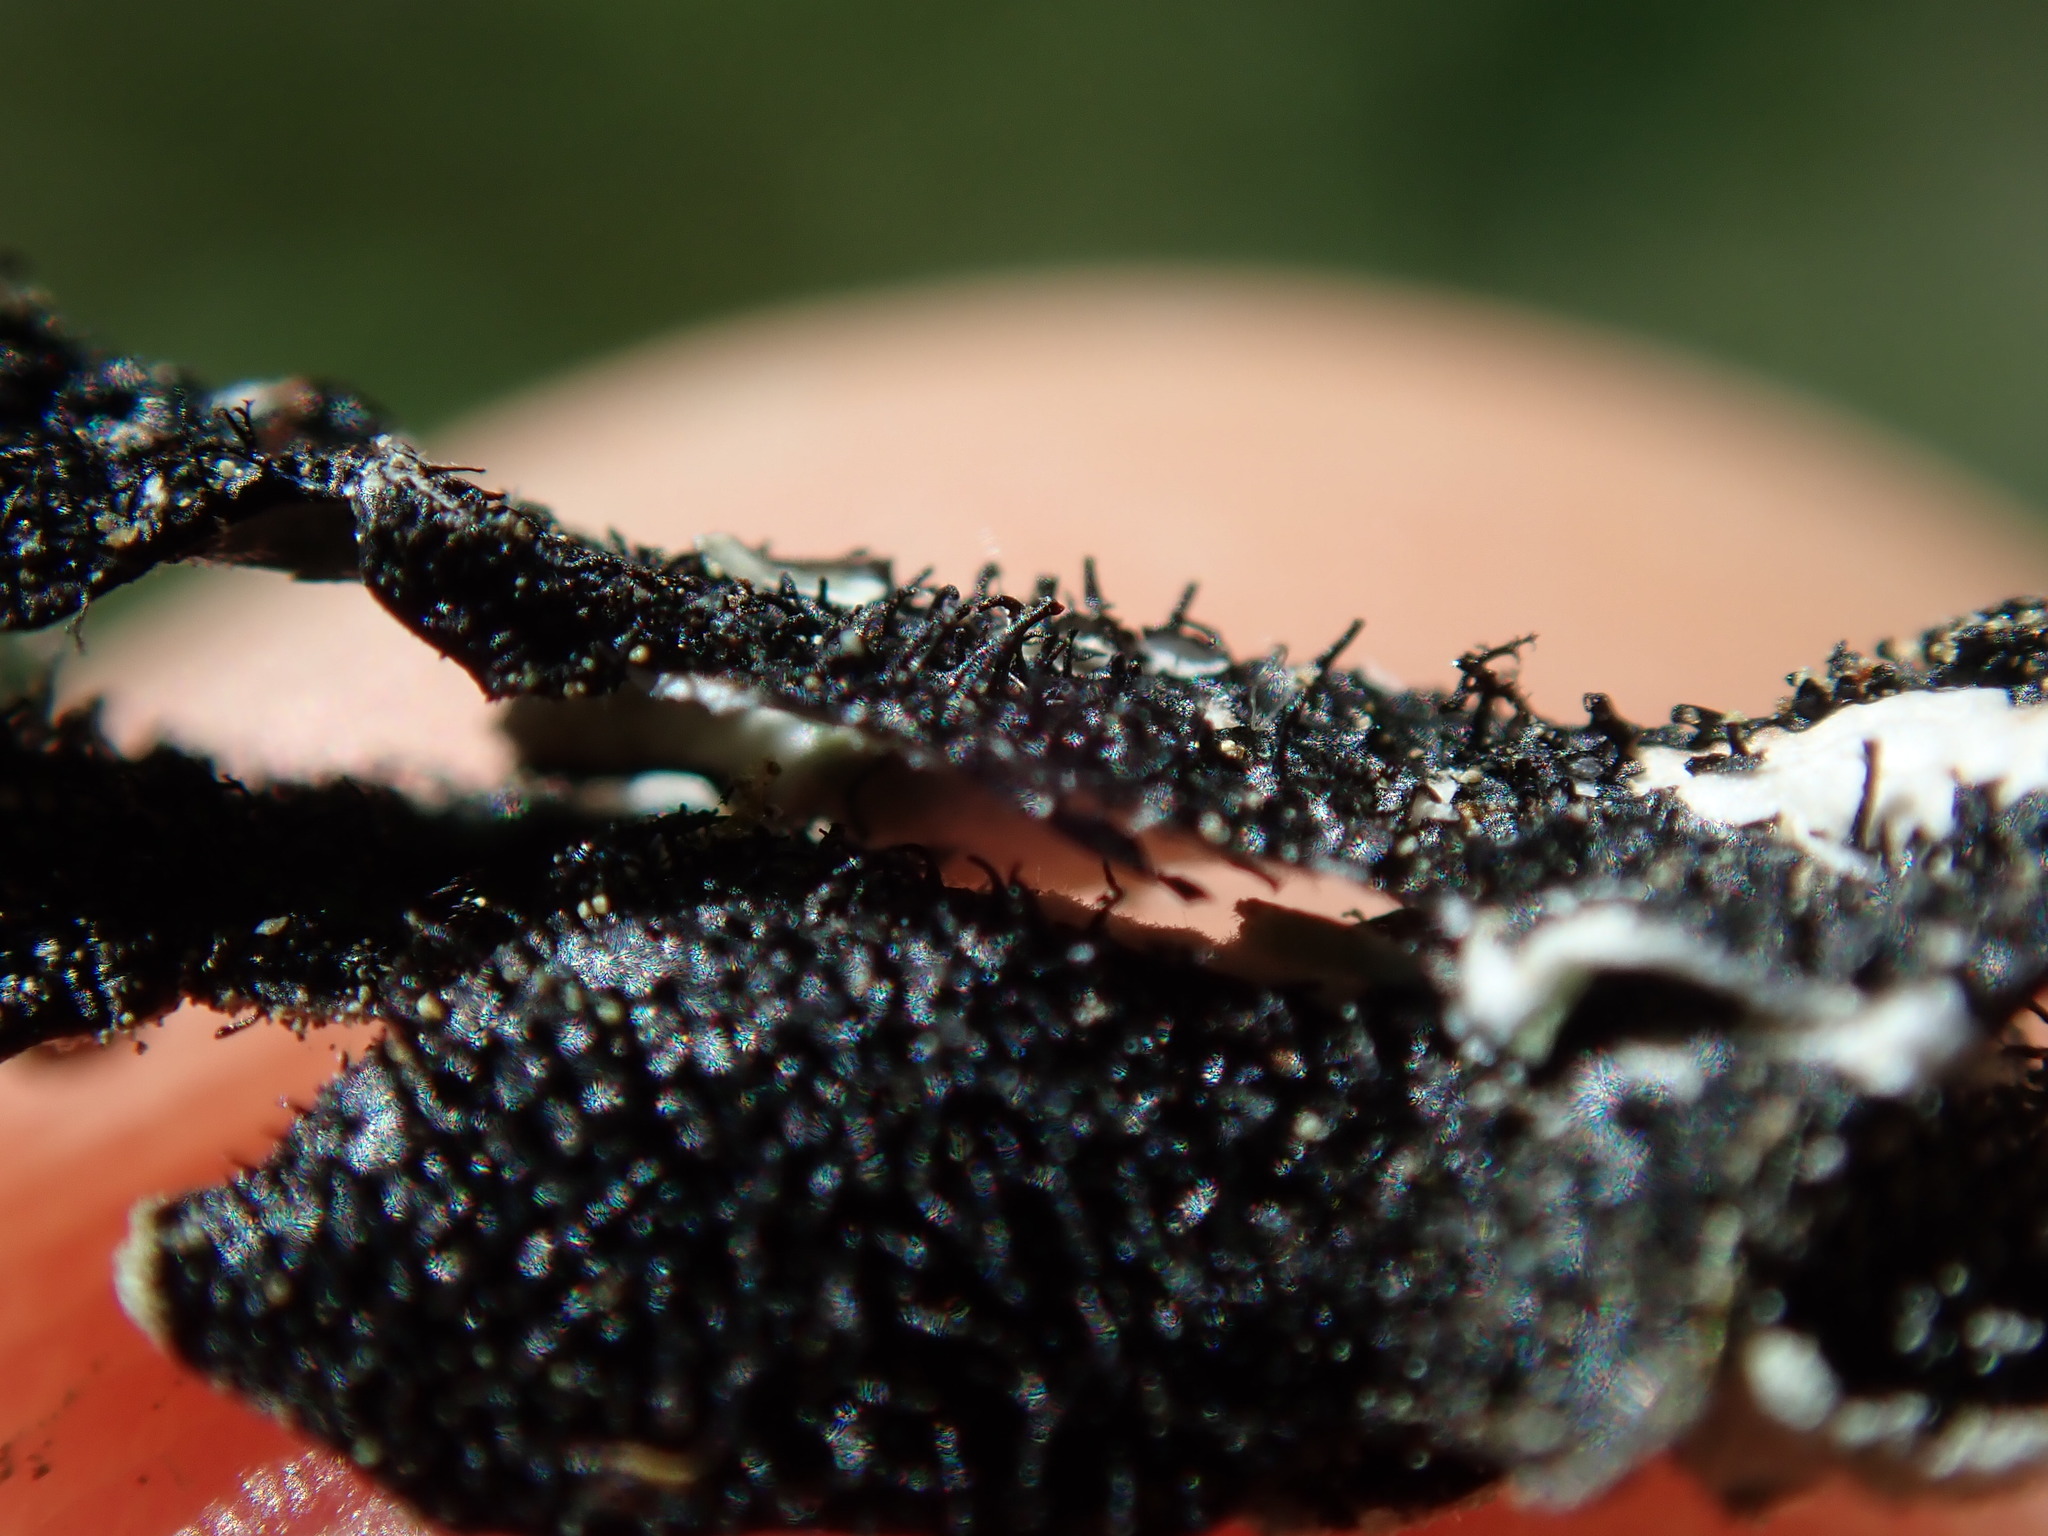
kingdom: Fungi
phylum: Ascomycota
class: Lecanoromycetes
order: Lecanorales
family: Parmeliaceae
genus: Parmelia
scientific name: Parmelia sulcata
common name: Netted shield lichen
